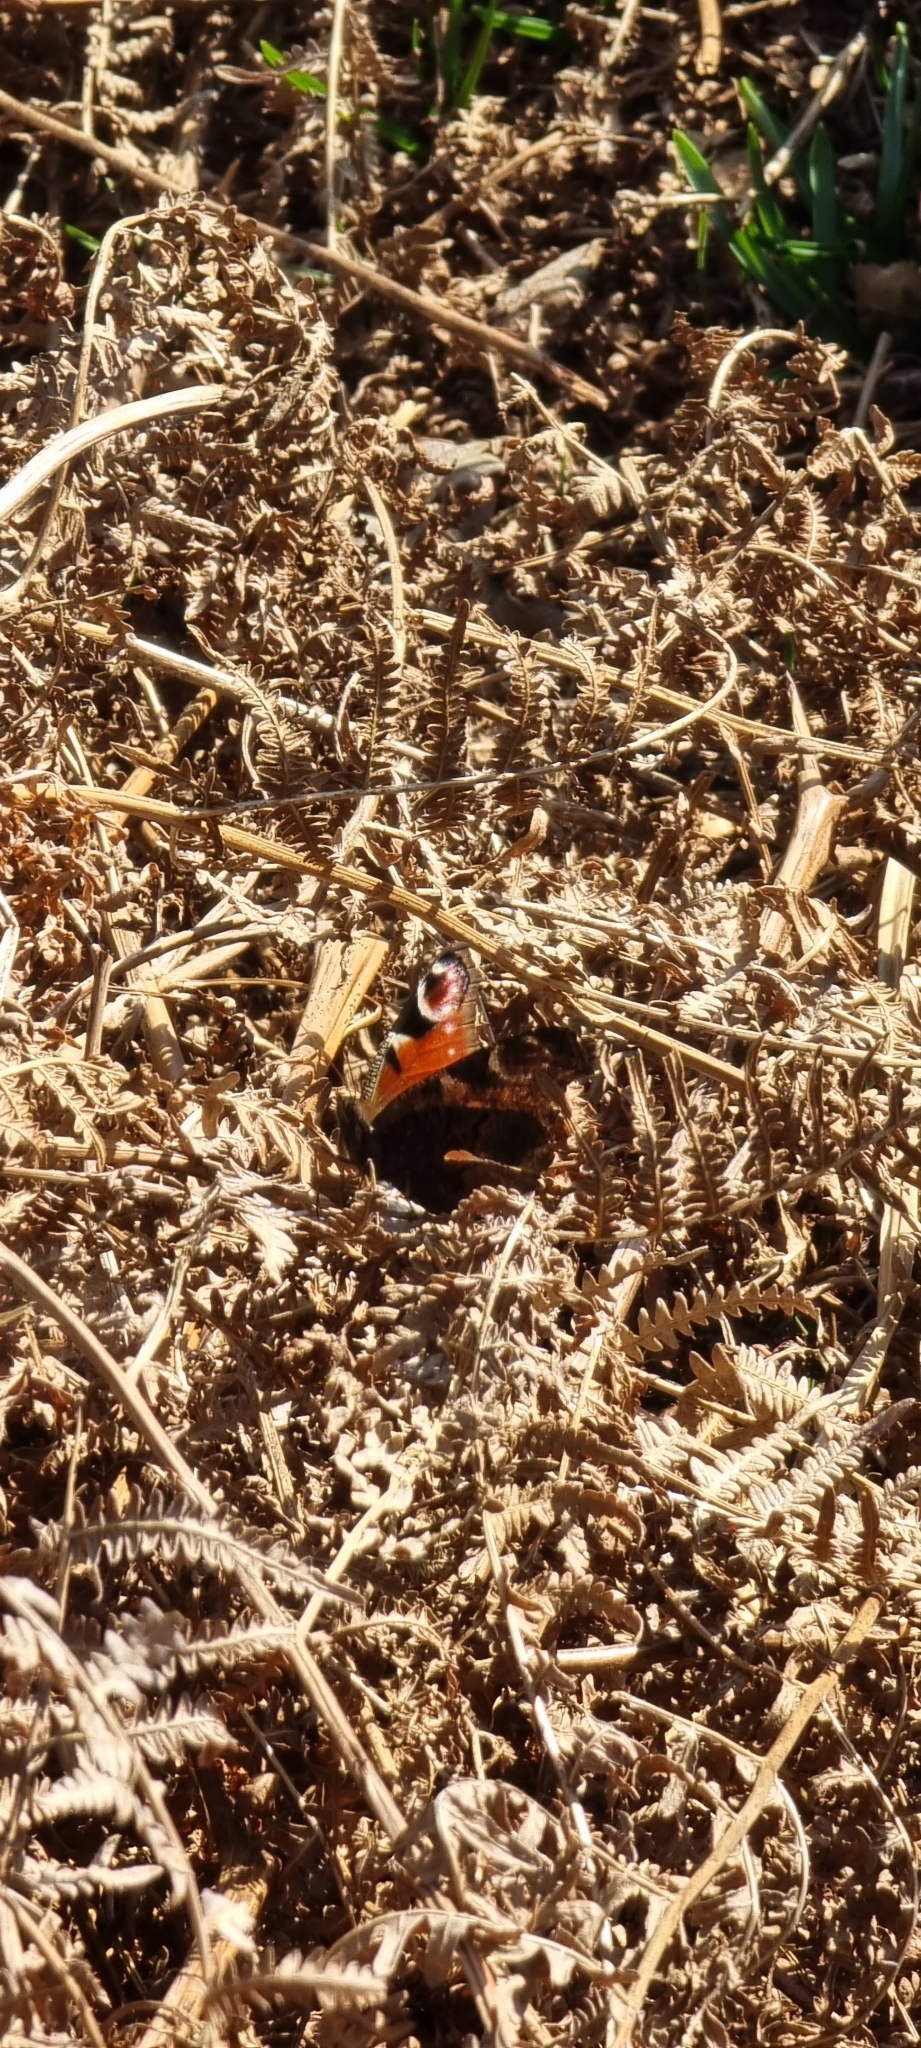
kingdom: Animalia
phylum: Arthropoda
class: Insecta
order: Lepidoptera
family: Nymphalidae
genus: Aglais
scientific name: Aglais io
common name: Peacock
